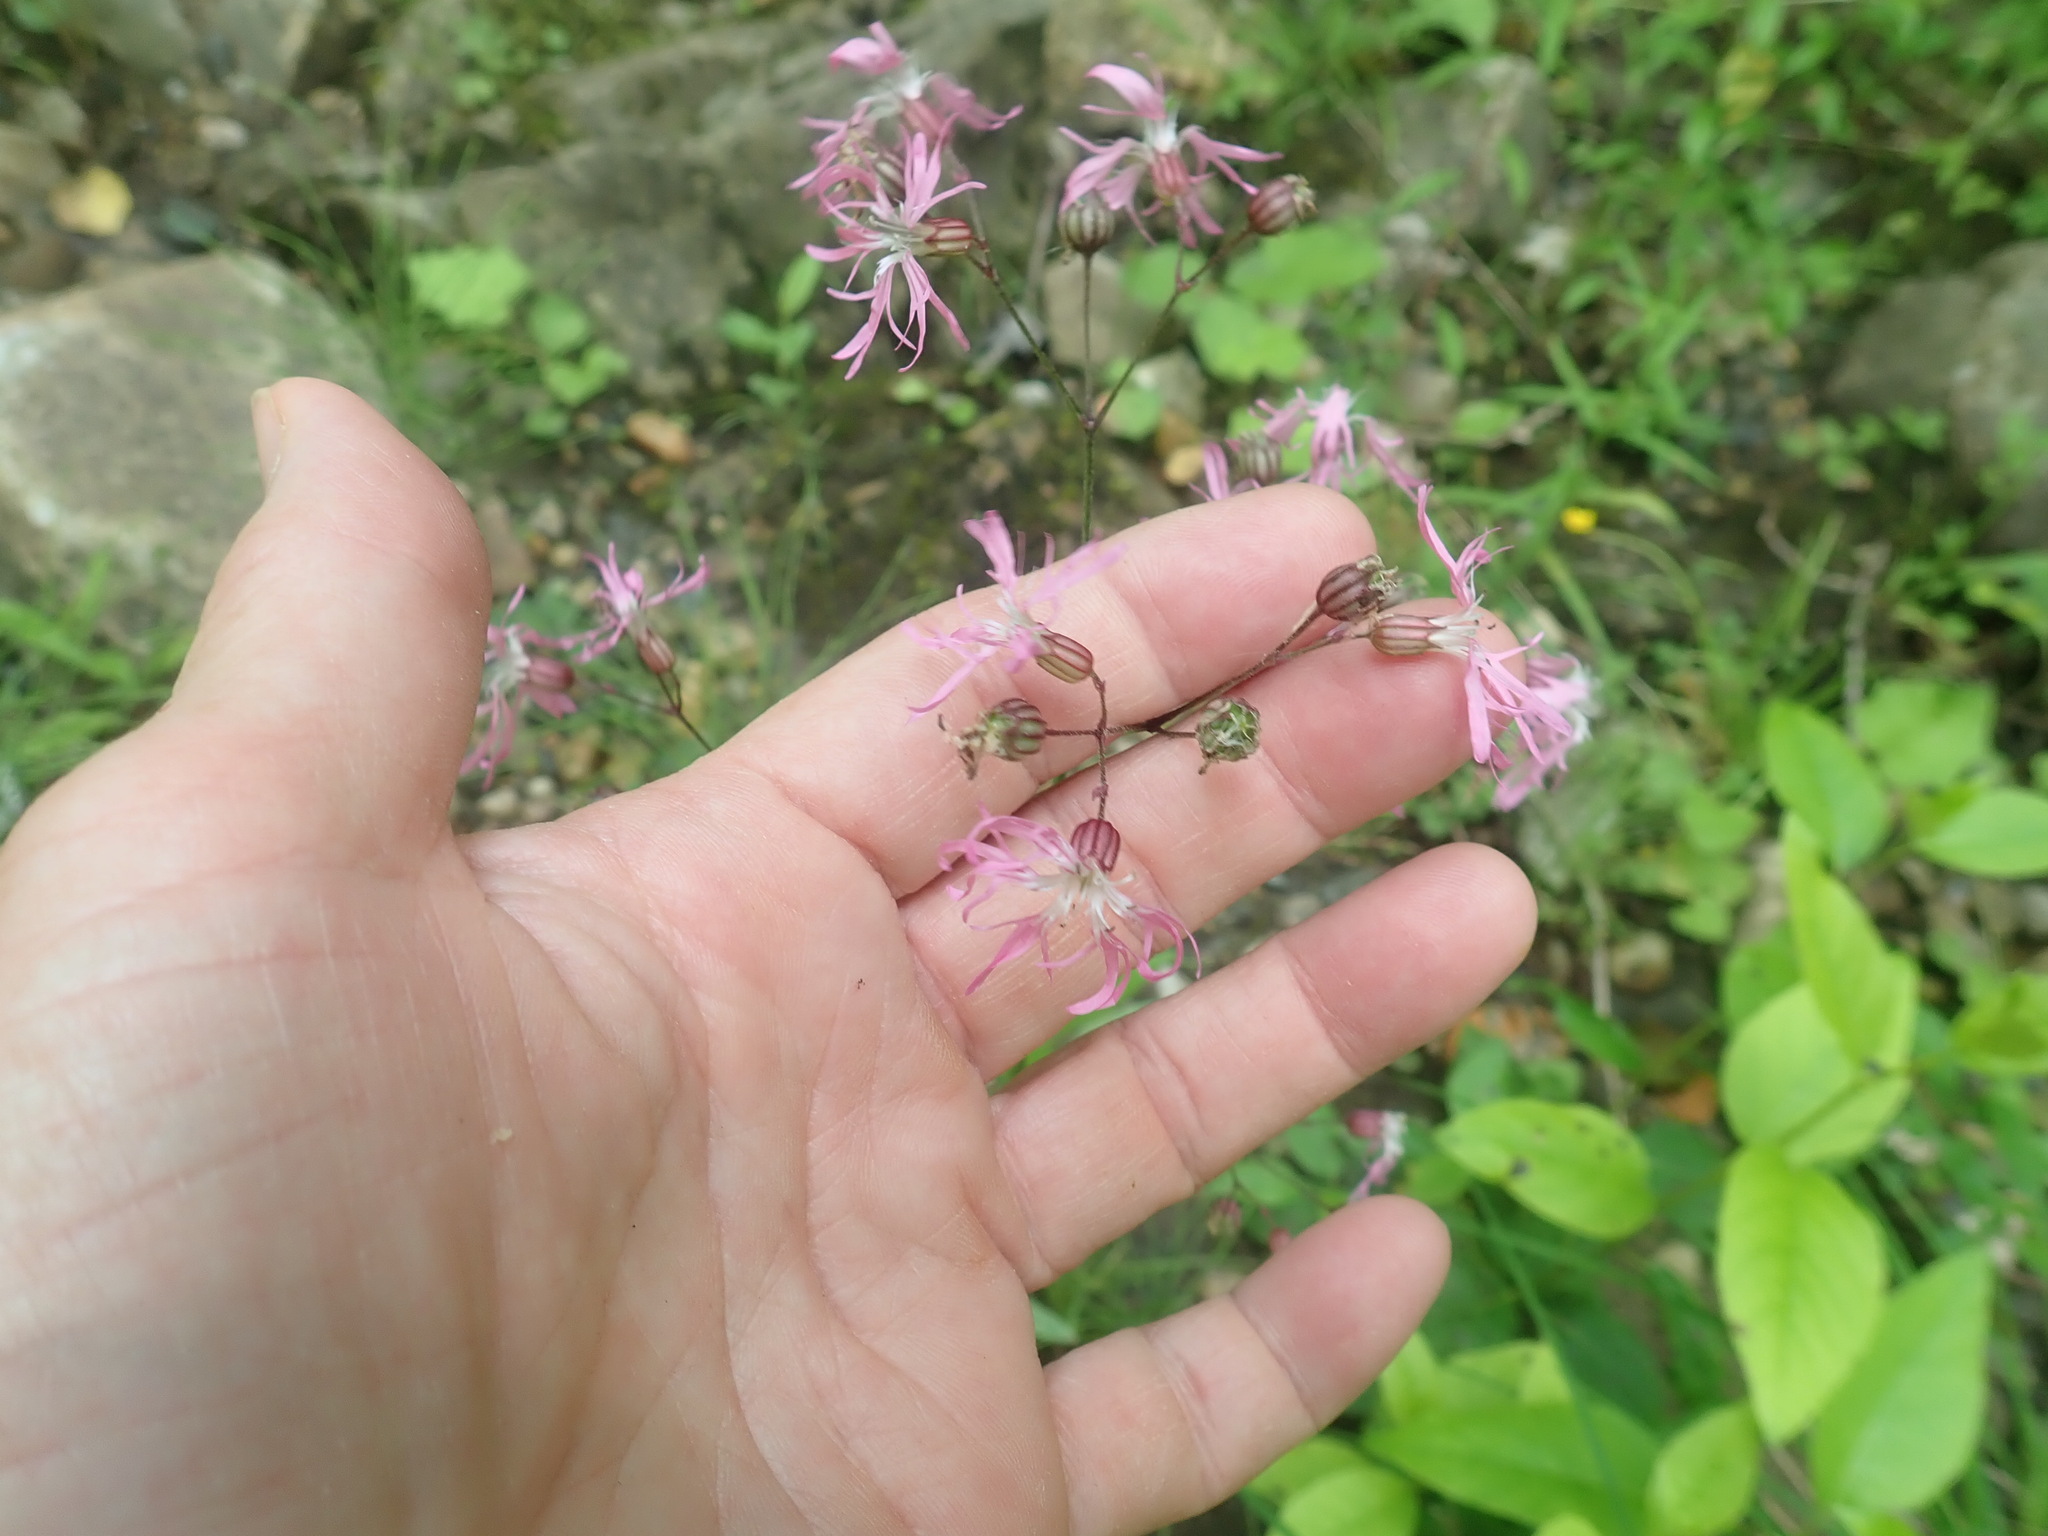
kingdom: Plantae
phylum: Tracheophyta
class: Magnoliopsida
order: Caryophyllales
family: Caryophyllaceae
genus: Silene
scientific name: Silene flos-cuculi
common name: Ragged-robin
